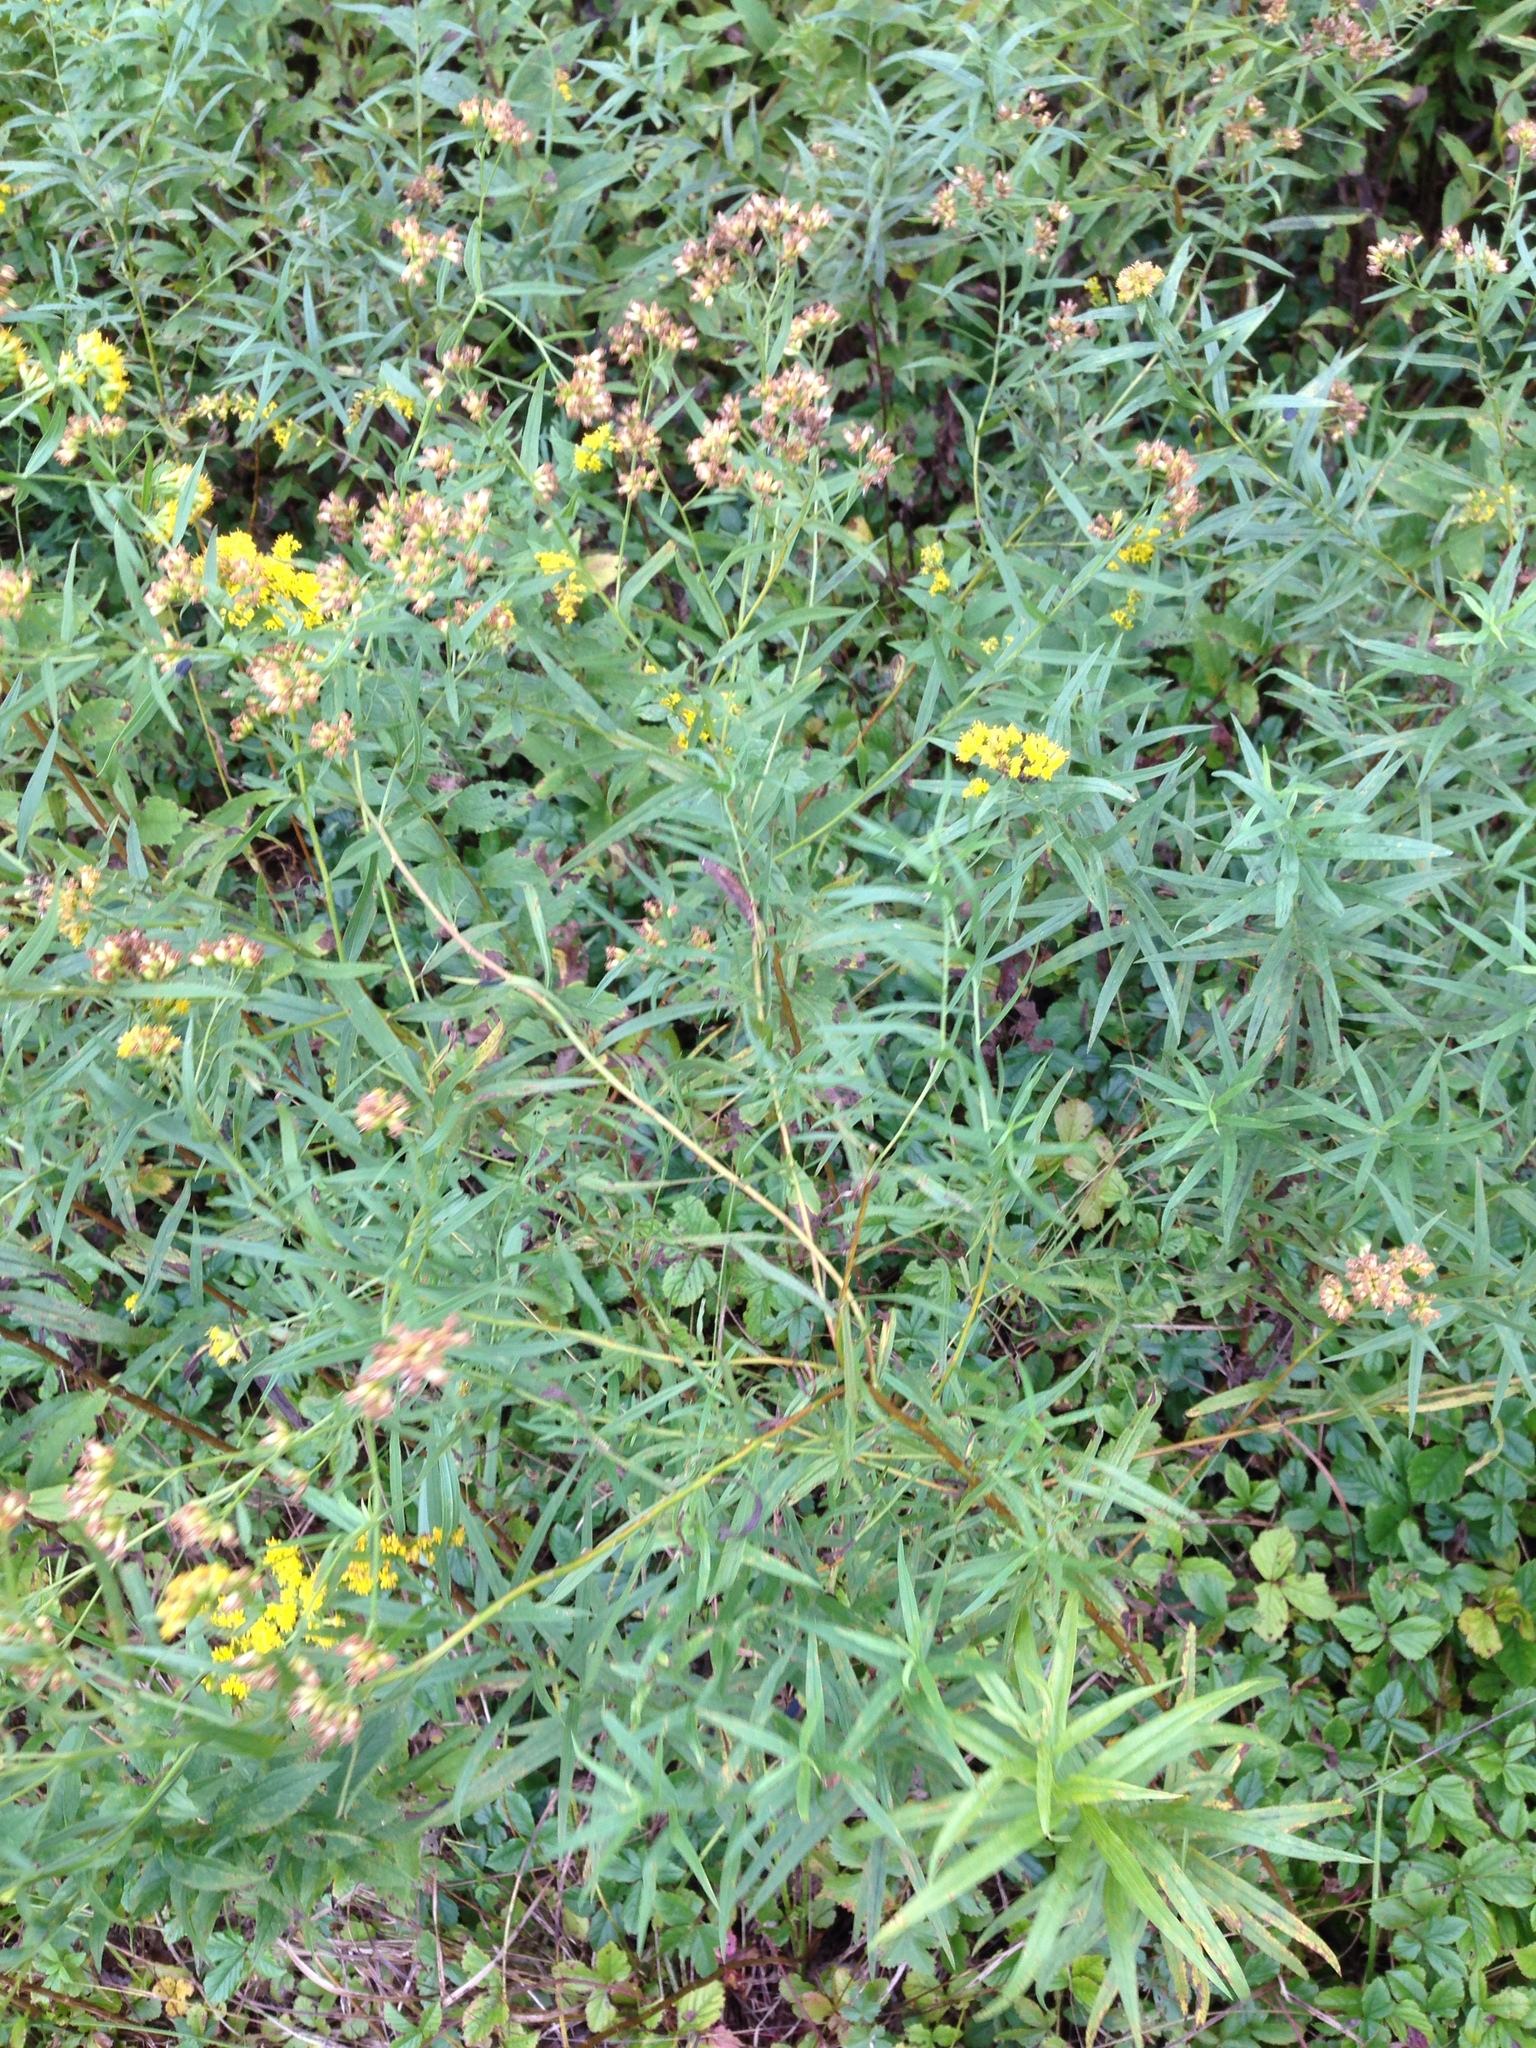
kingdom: Plantae
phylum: Tracheophyta
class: Magnoliopsida
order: Asterales
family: Asteraceae
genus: Euthamia
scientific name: Euthamia graminifolia
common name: Common goldentop
